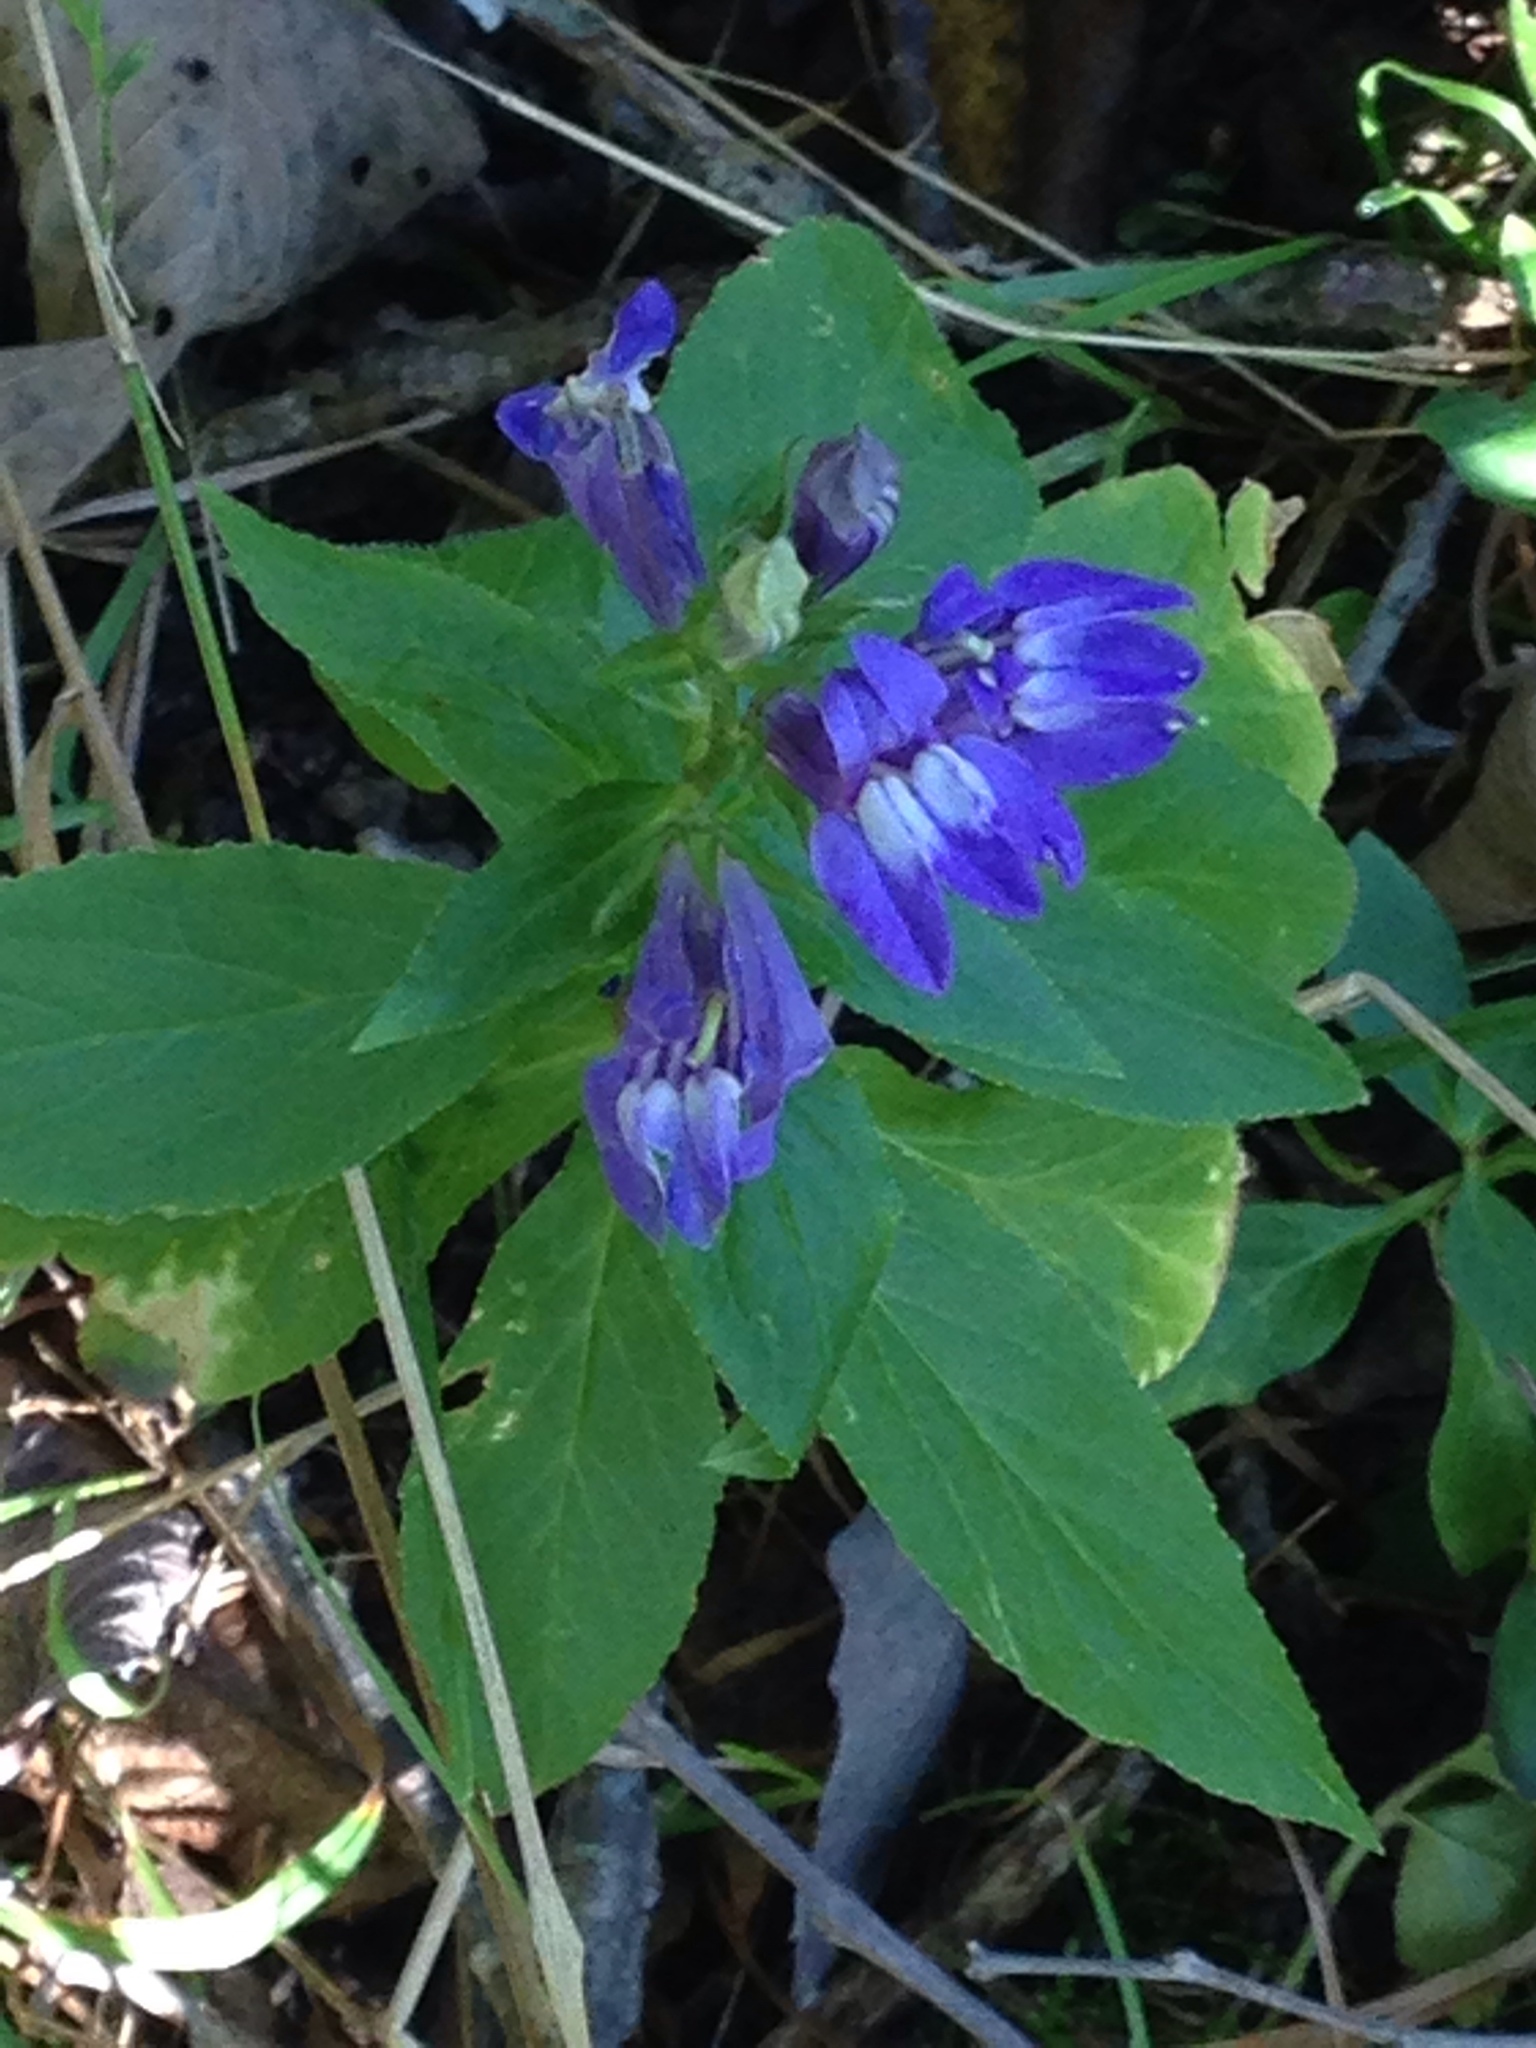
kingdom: Plantae
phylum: Tracheophyta
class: Magnoliopsida
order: Asterales
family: Campanulaceae
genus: Lobelia
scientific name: Lobelia siphilitica
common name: Great lobelia
